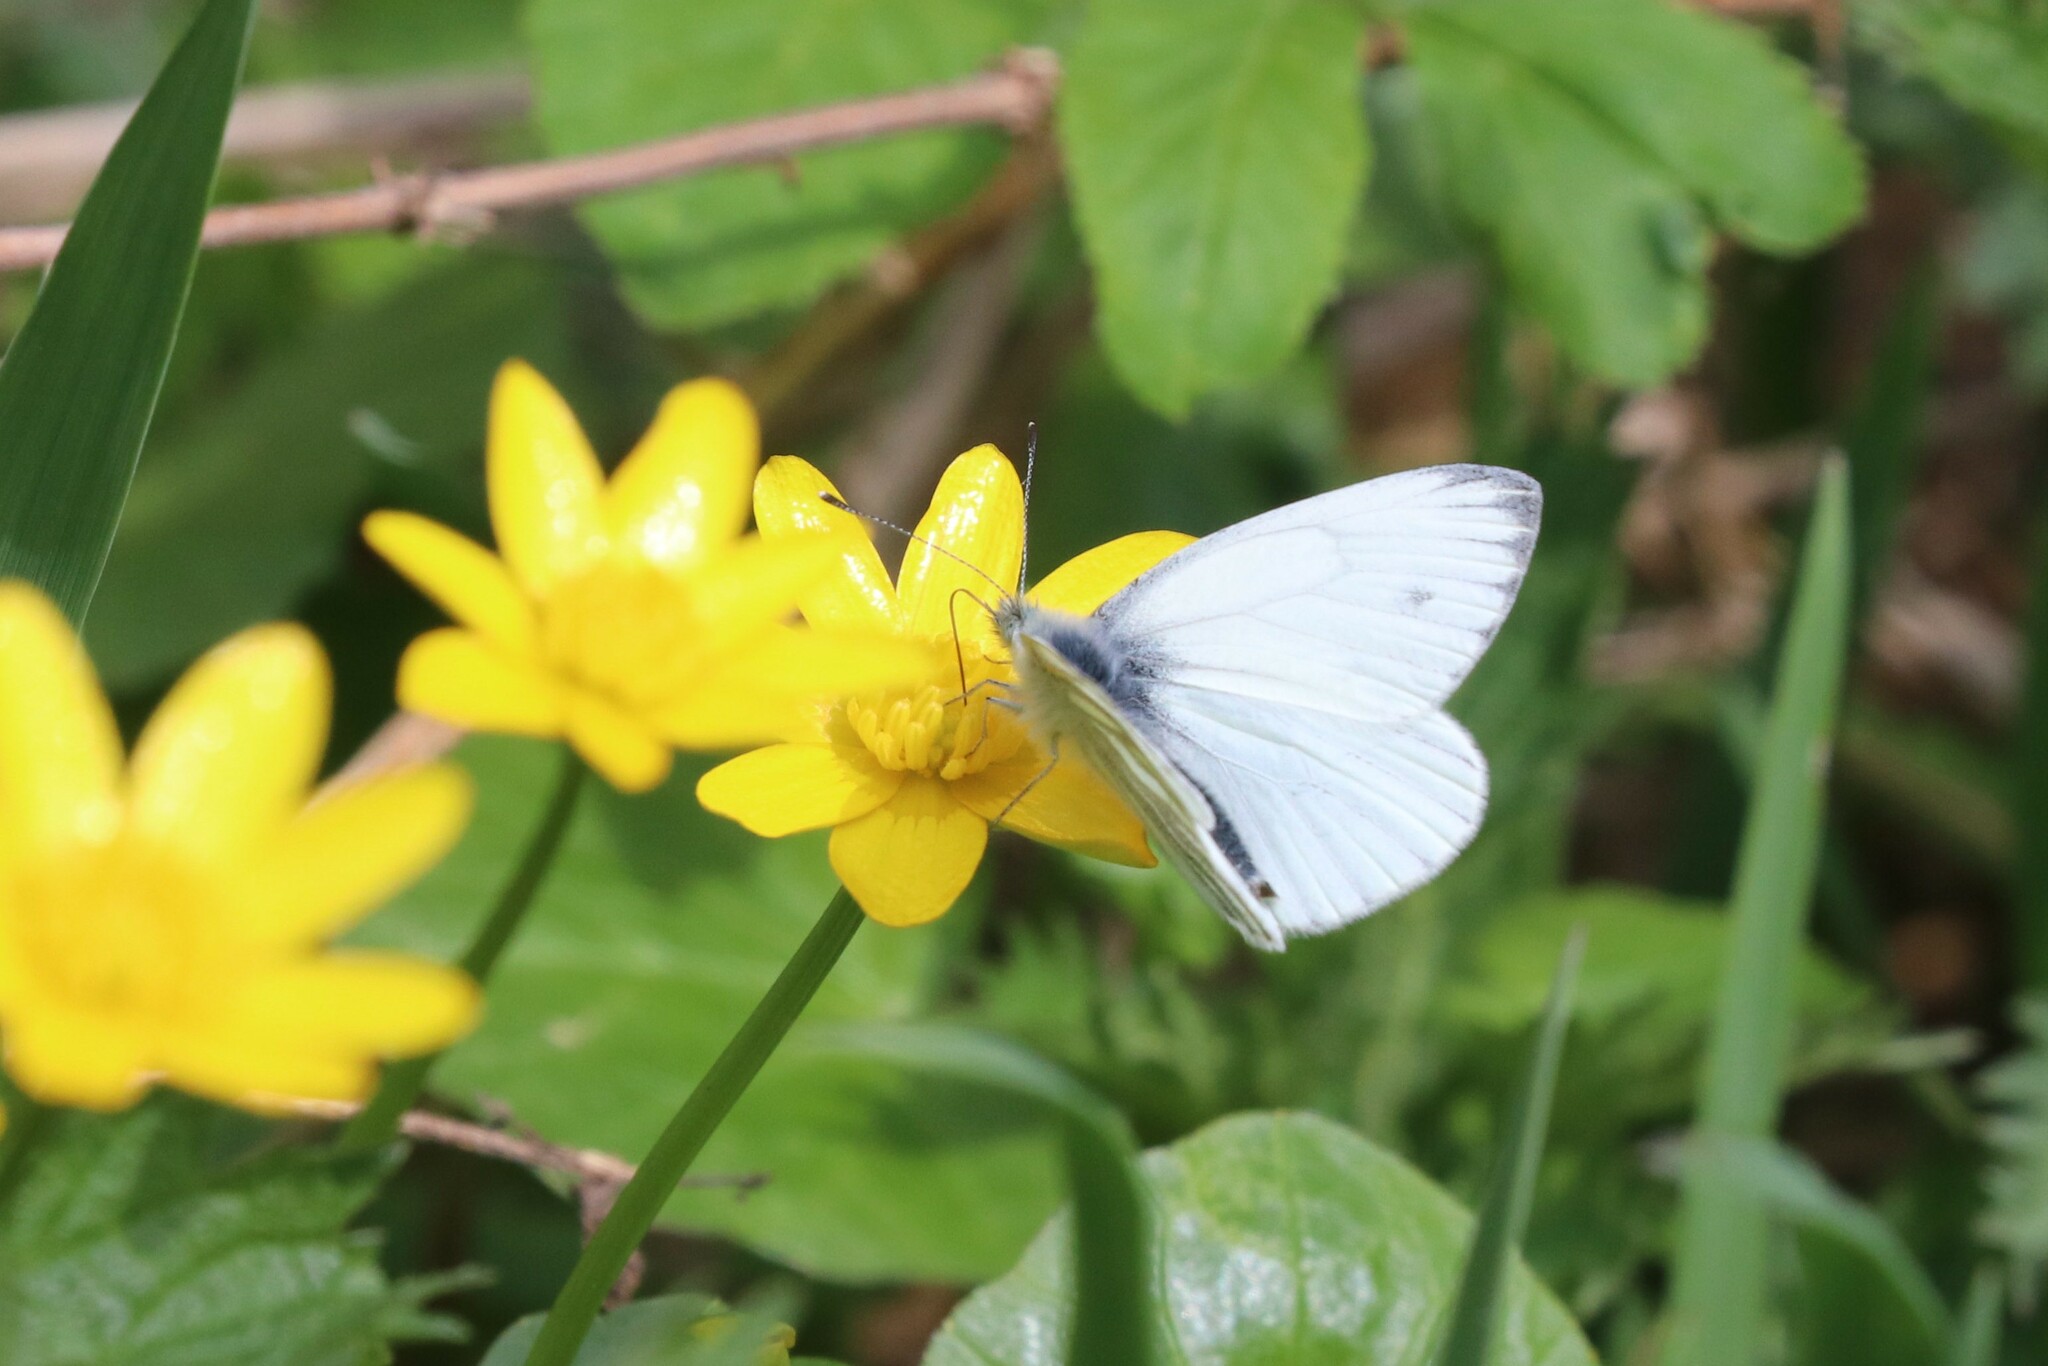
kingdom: Animalia
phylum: Arthropoda
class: Insecta
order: Lepidoptera
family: Pieridae
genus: Pieris
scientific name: Pieris napi
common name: Green-veined white
